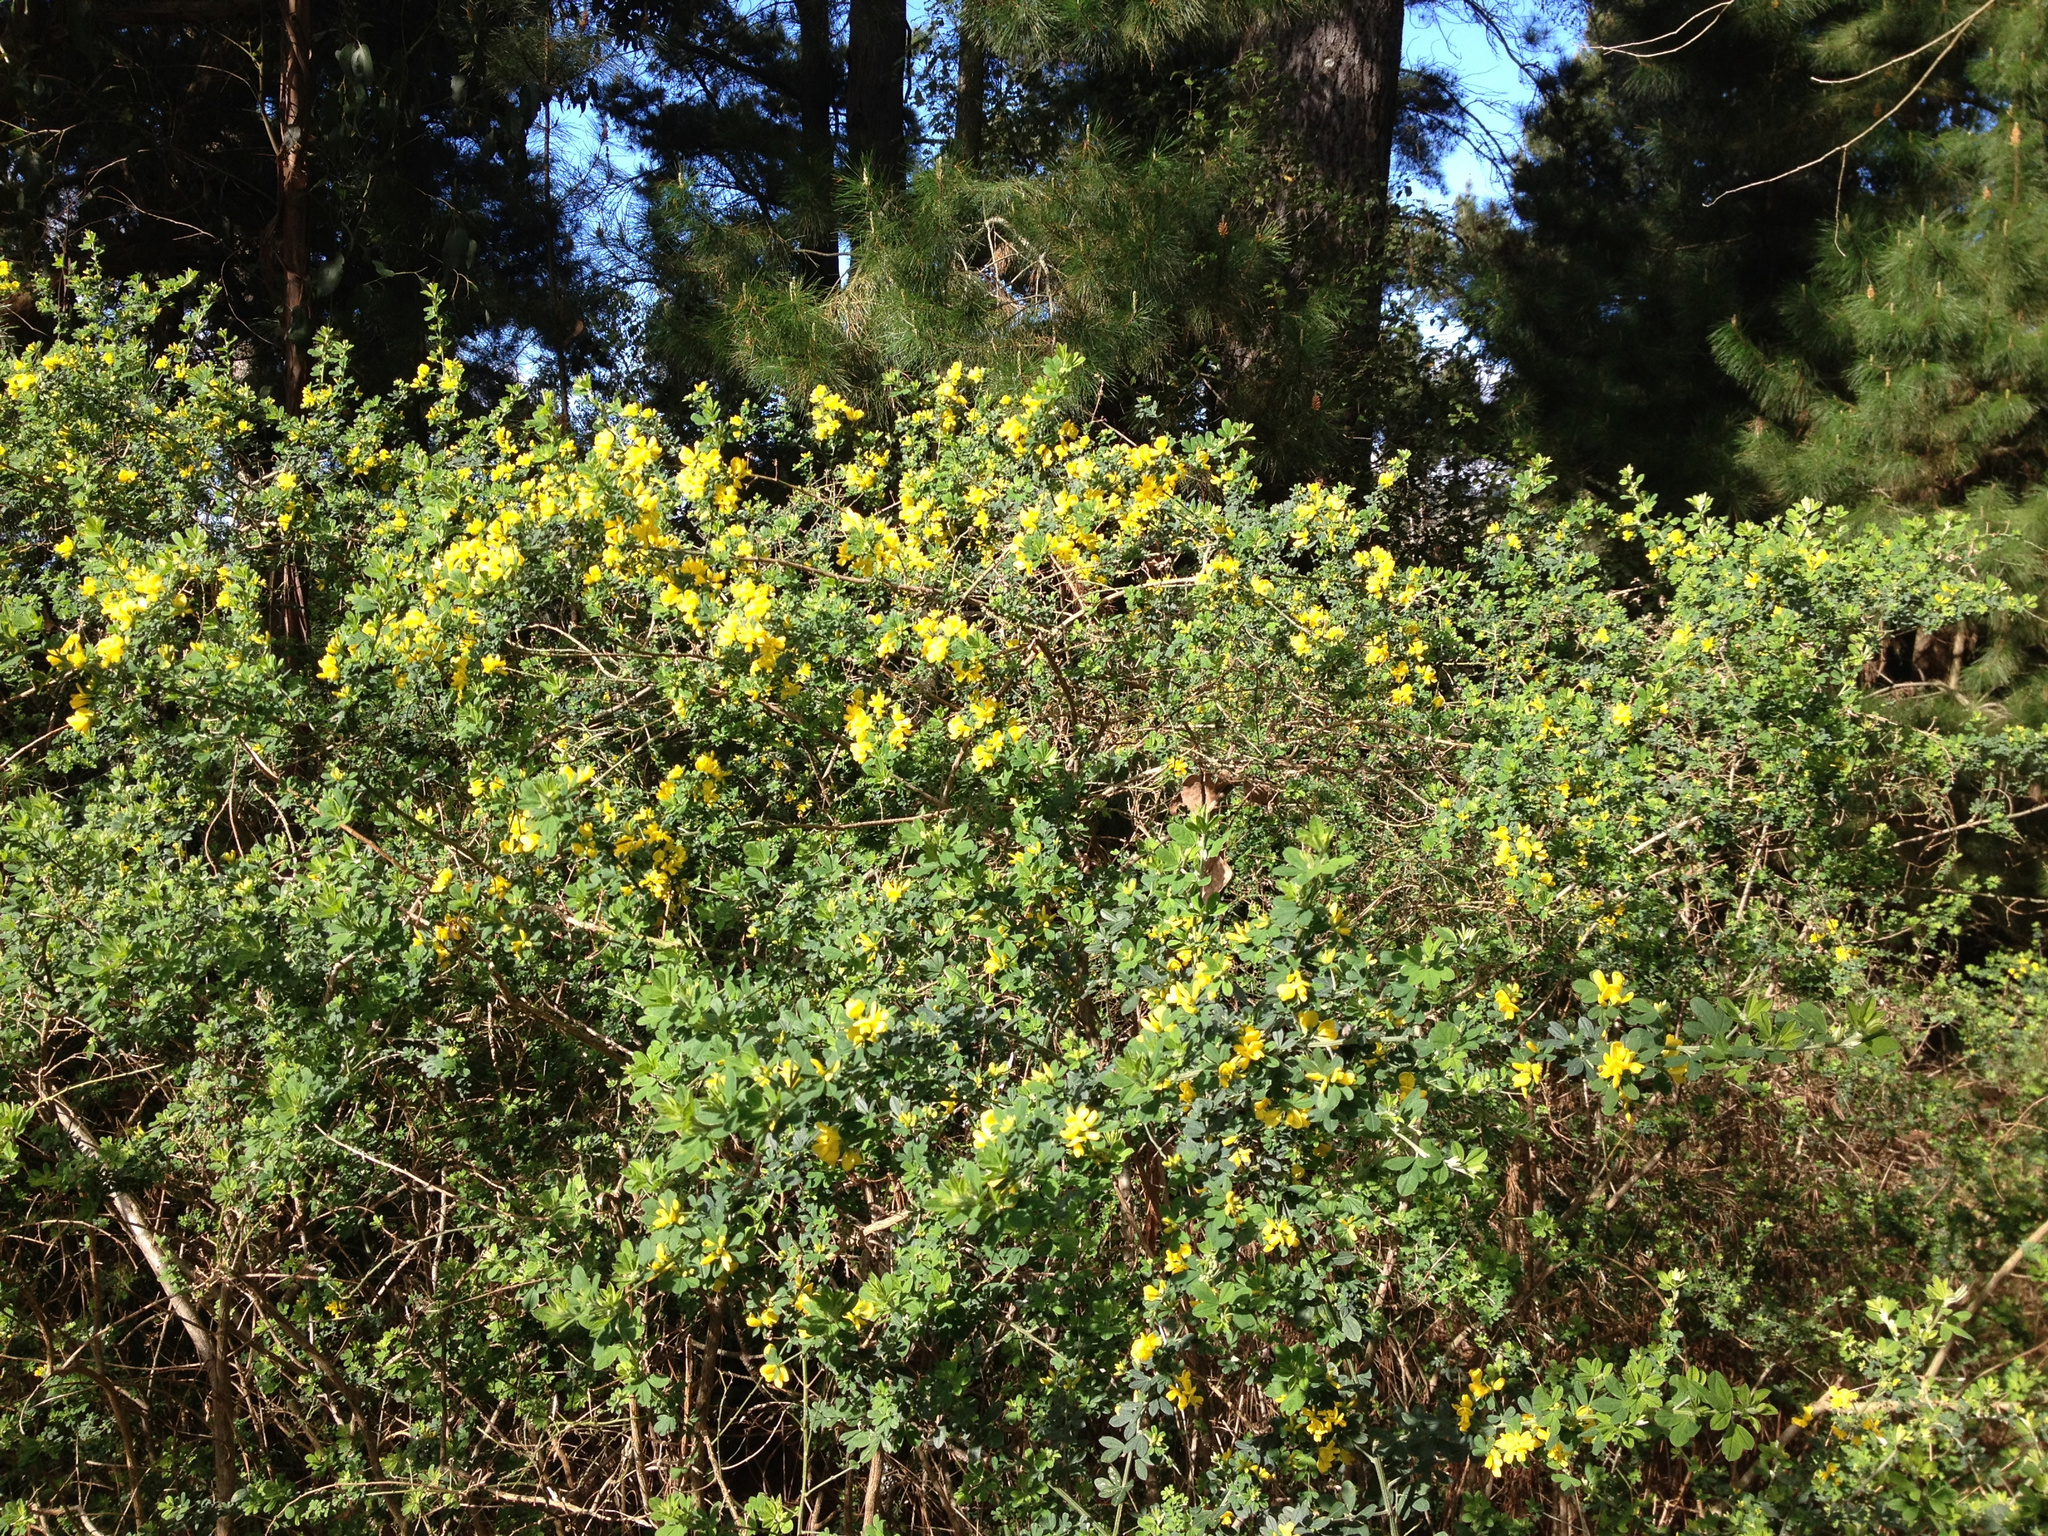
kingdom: Plantae
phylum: Tracheophyta
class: Magnoliopsida
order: Fabales
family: Fabaceae
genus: Genista
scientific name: Genista monspessulana
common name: Montpellier broom
